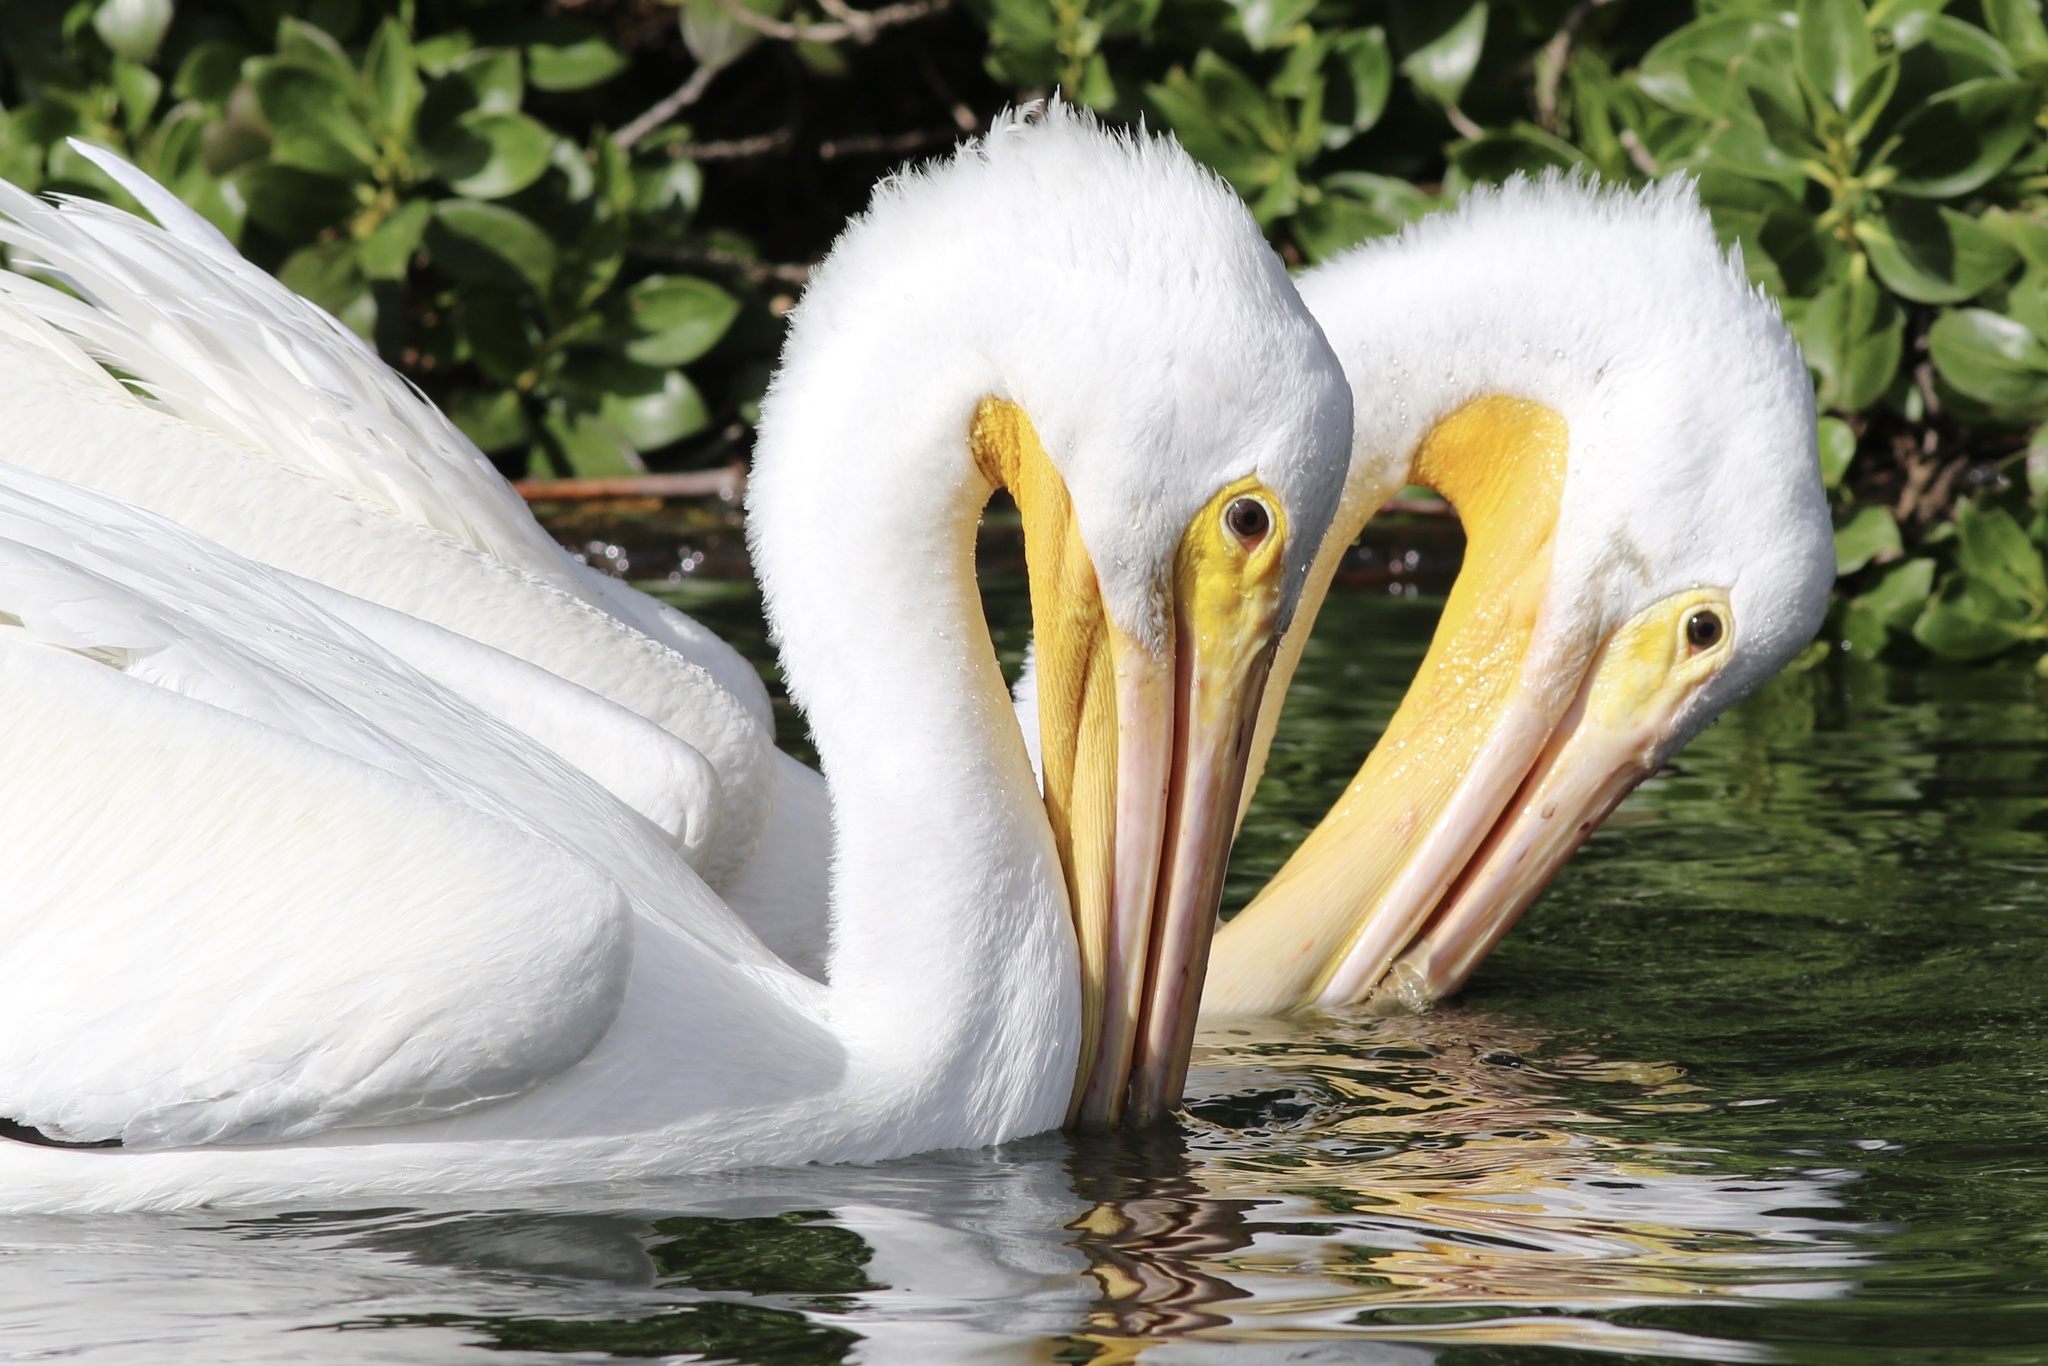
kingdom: Animalia
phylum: Chordata
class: Aves
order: Pelecaniformes
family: Pelecanidae
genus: Pelecanus
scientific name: Pelecanus erythrorhynchos
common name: American white pelican
